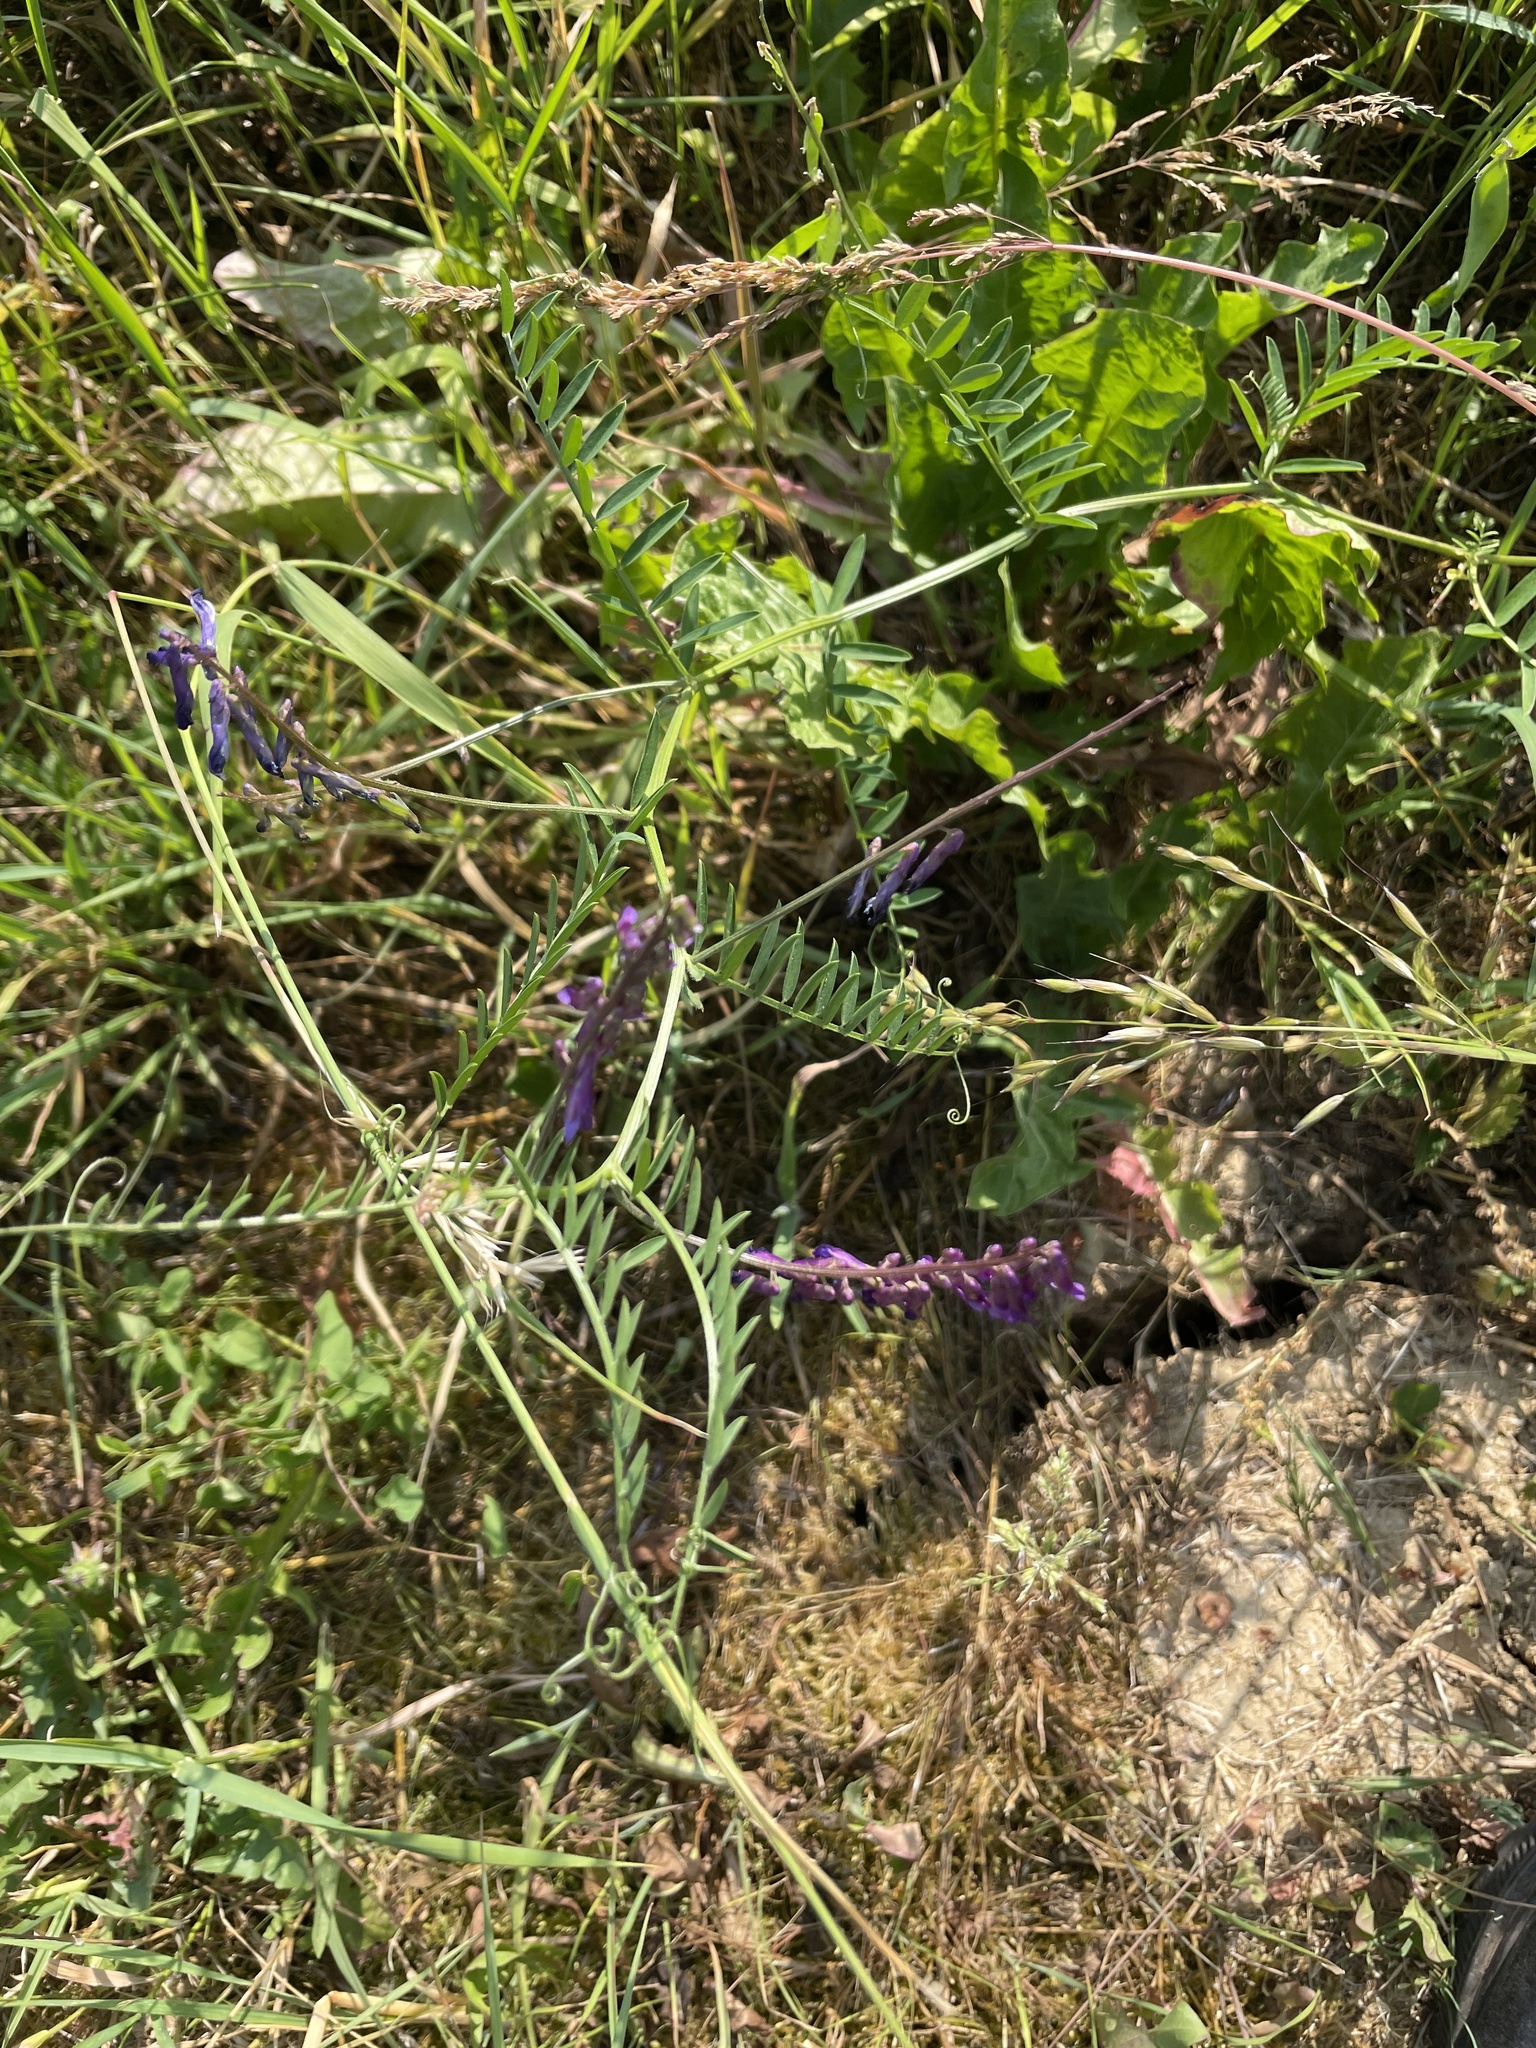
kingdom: Plantae
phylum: Tracheophyta
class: Magnoliopsida
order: Fabales
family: Fabaceae
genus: Vicia
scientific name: Vicia cracca
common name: Bird vetch
